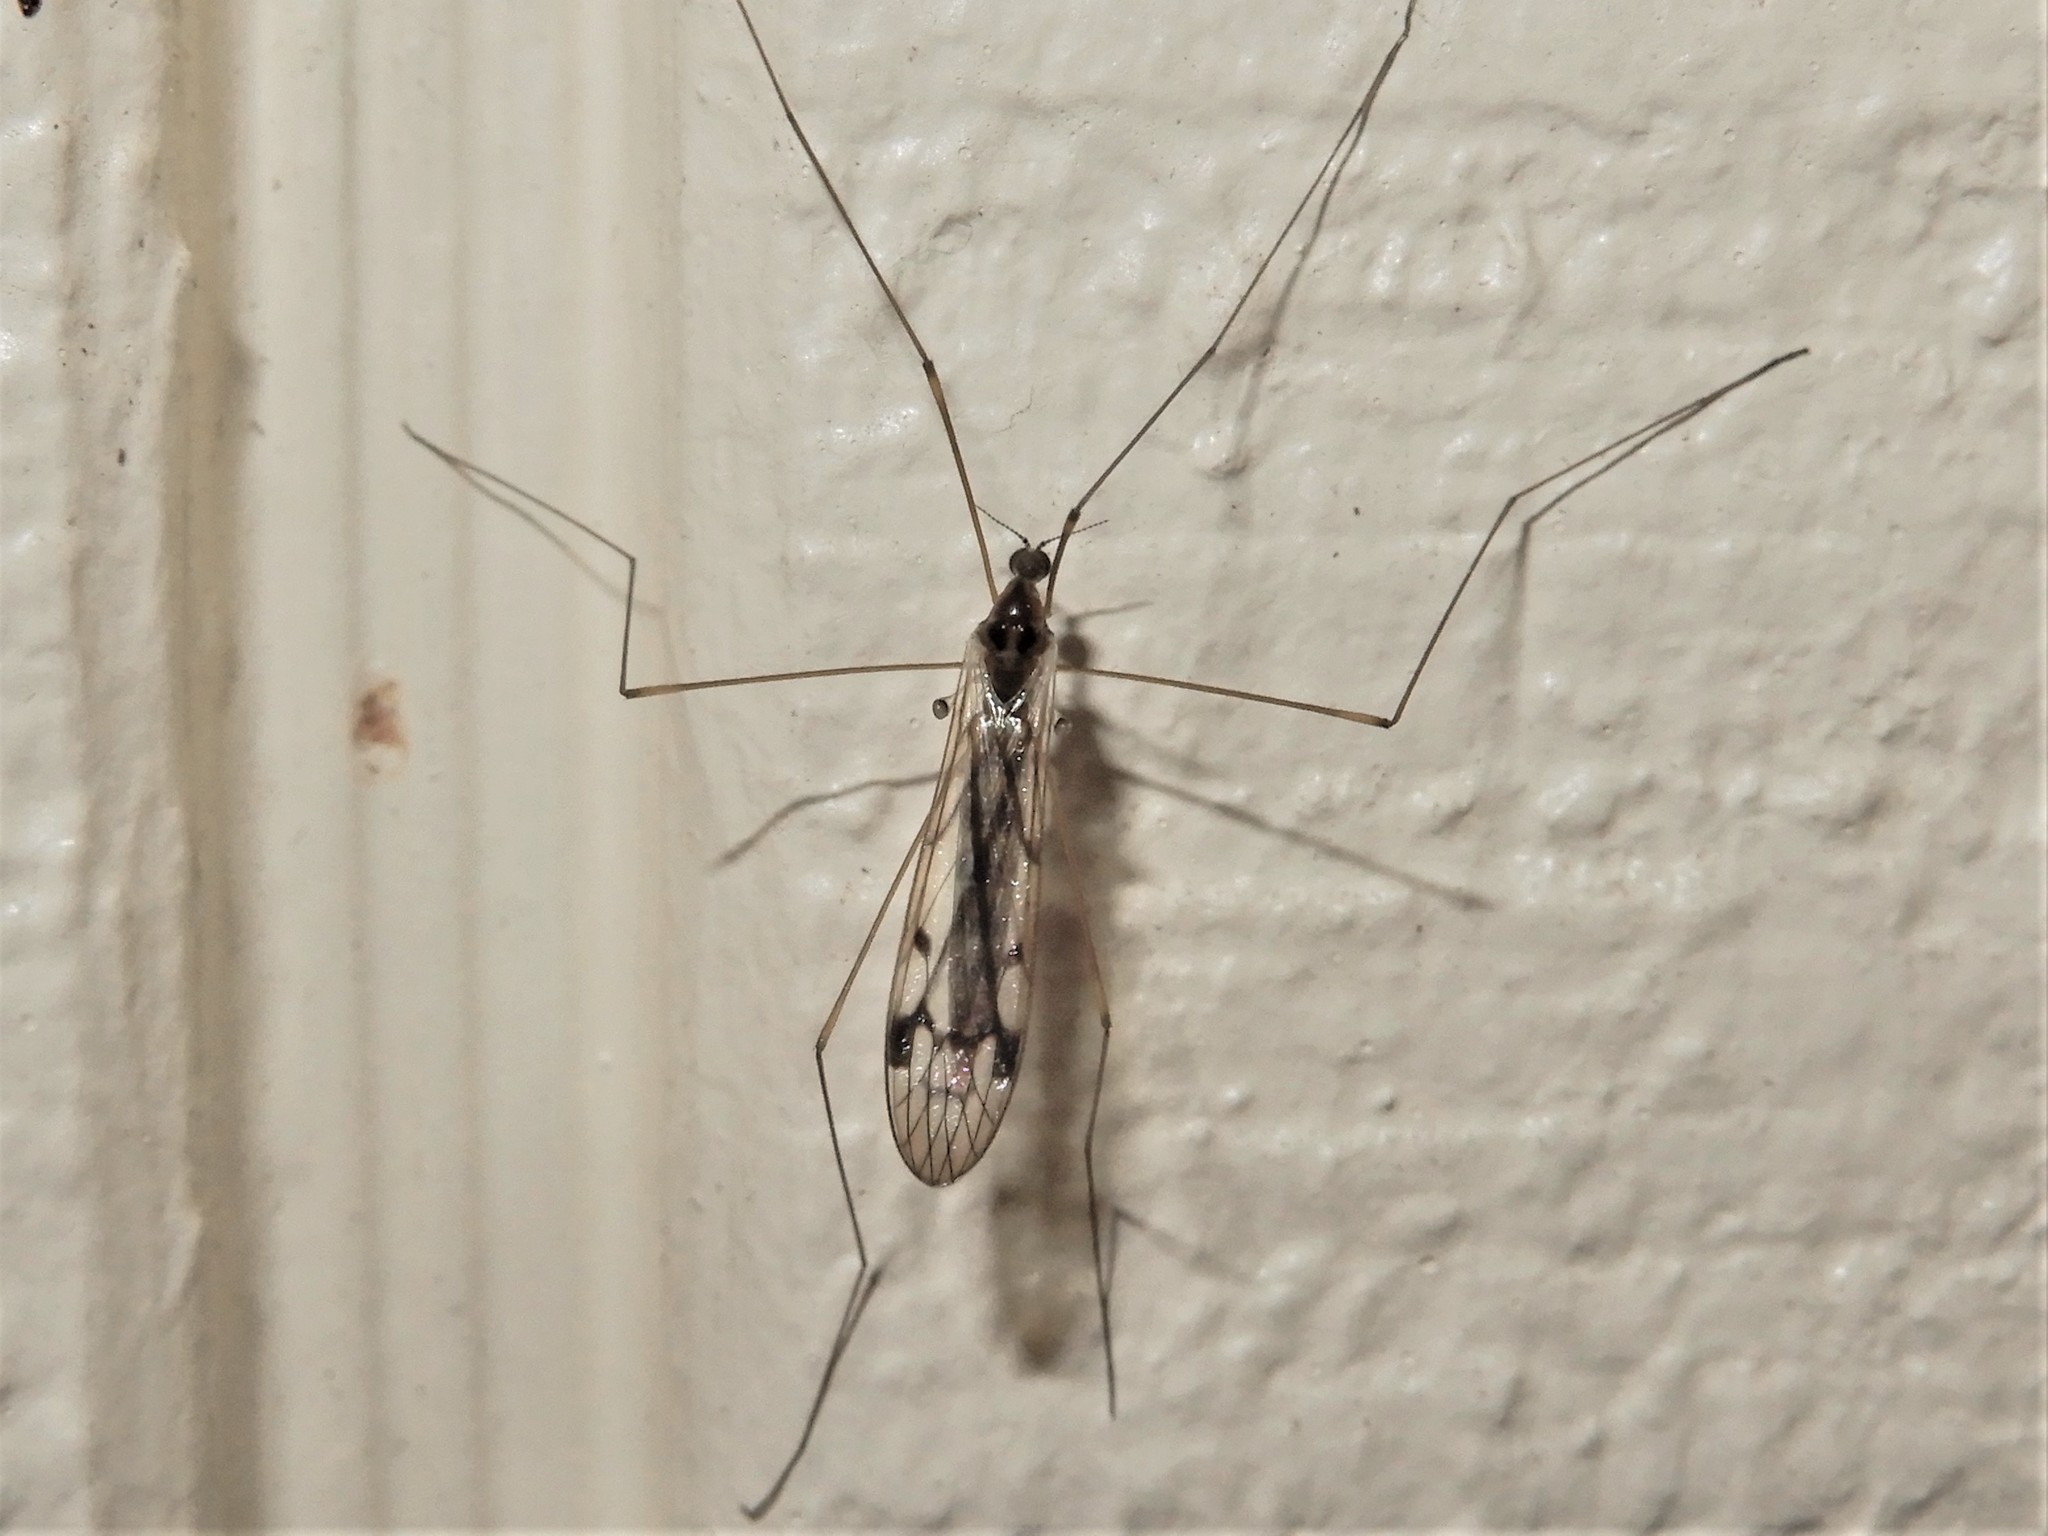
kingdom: Animalia
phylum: Arthropoda
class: Insecta
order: Diptera
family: Limoniidae
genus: Dicranomyia
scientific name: Dicranomyia crassipes
